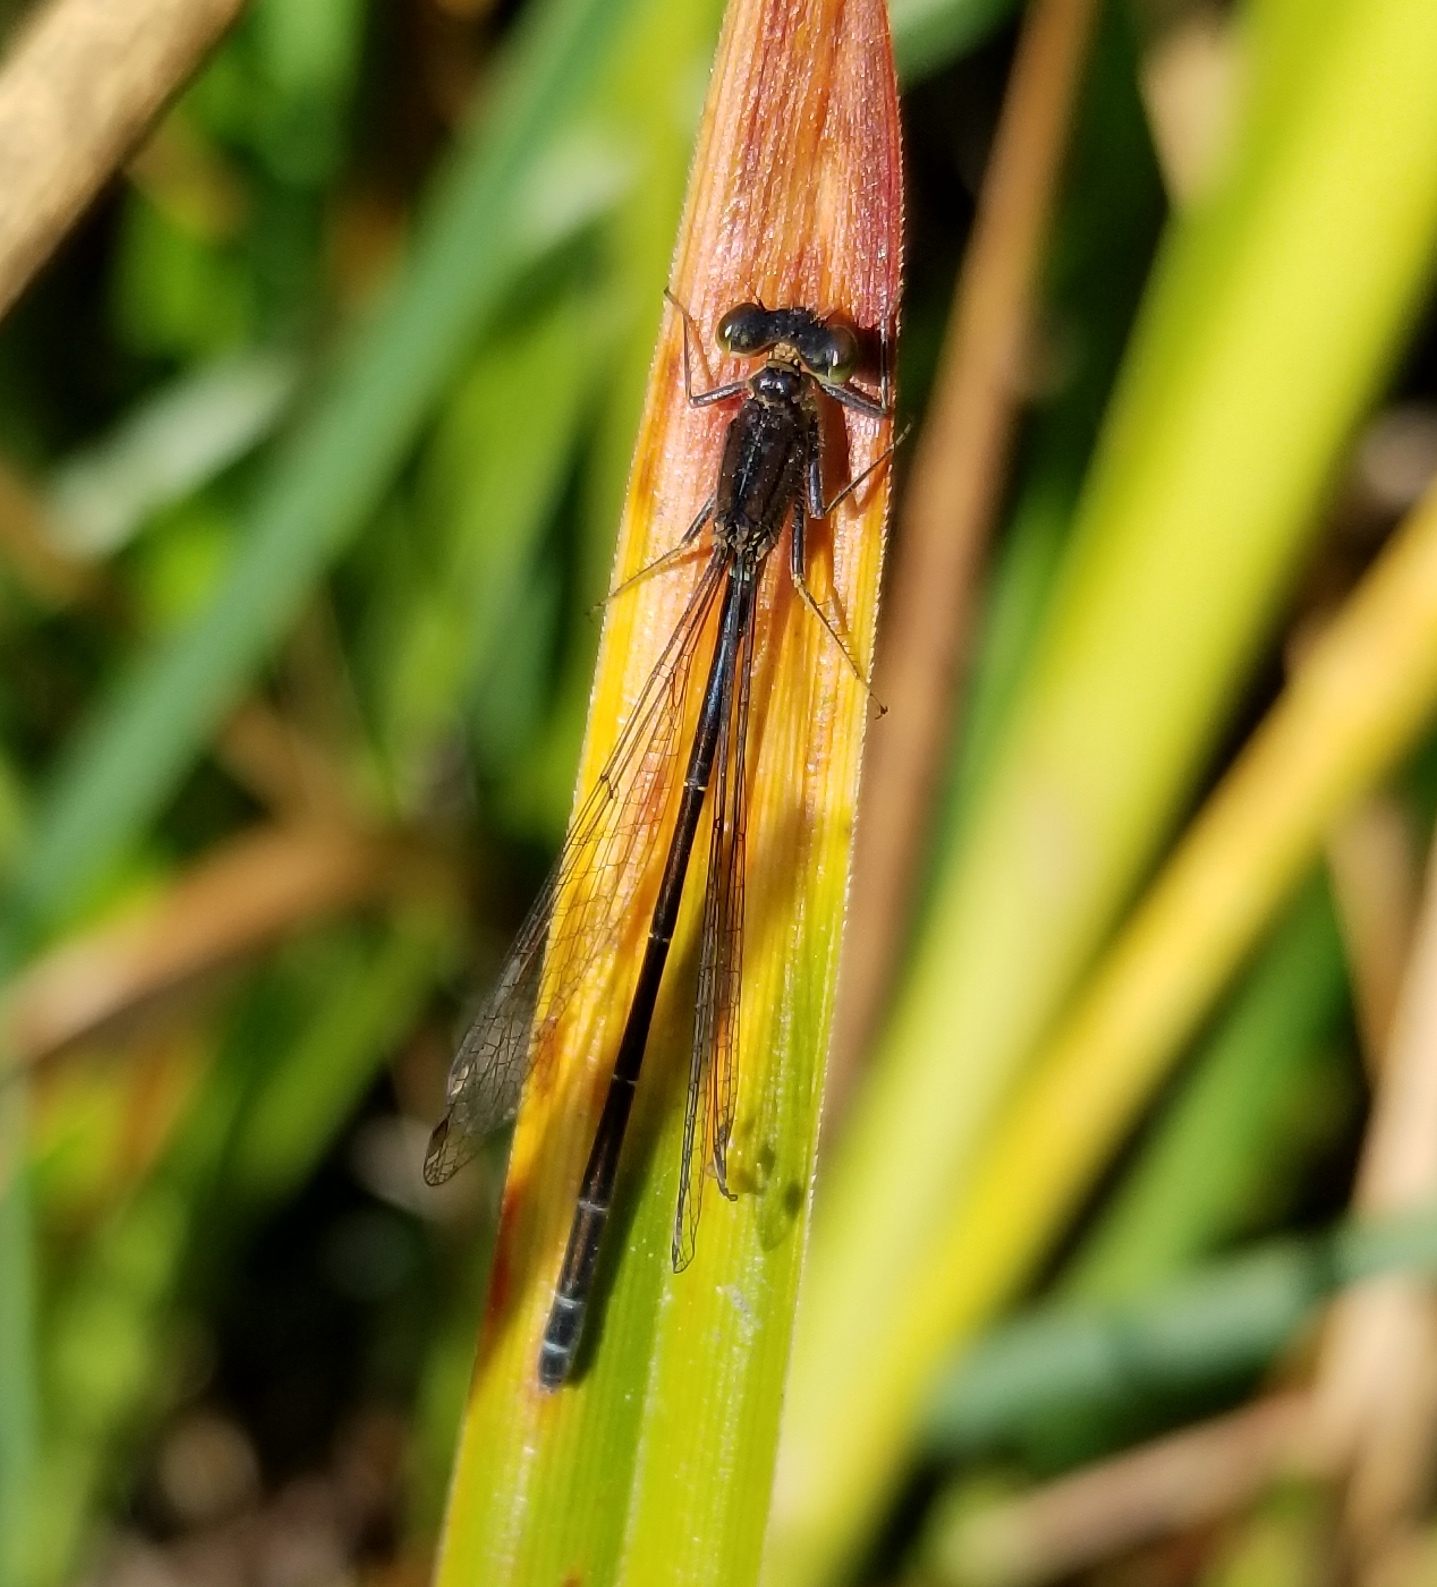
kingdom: Animalia
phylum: Arthropoda
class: Insecta
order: Odonata
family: Coenagrionidae
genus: Ischnura
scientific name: Ischnura cervula
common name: Pacific forktail
